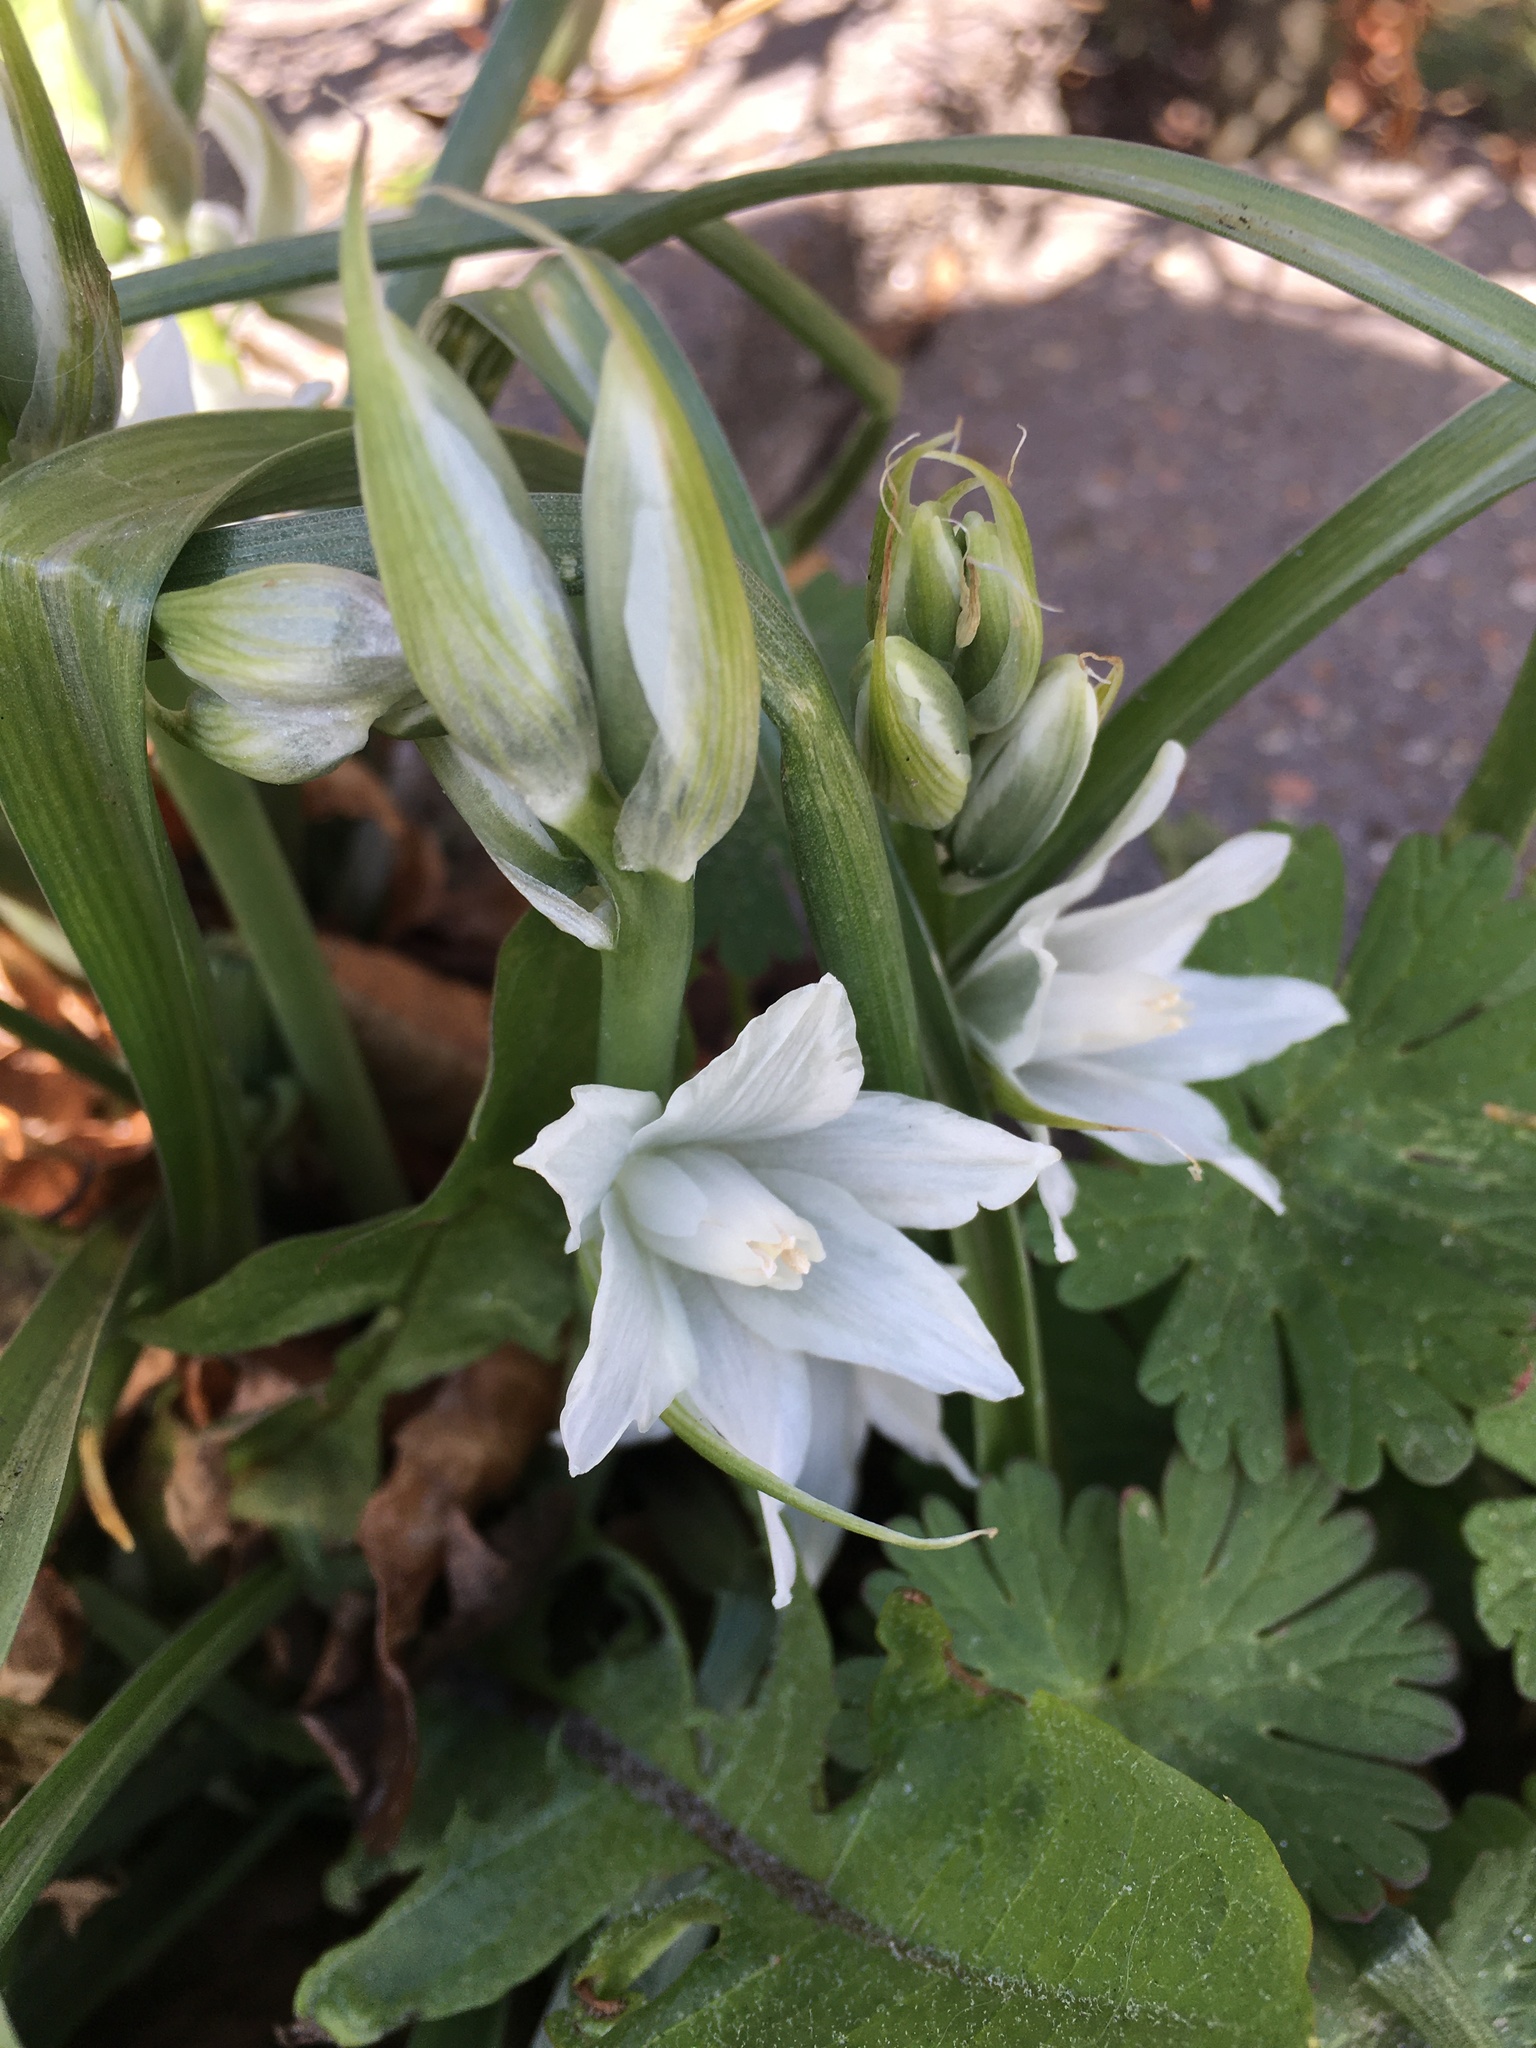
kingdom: Plantae
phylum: Tracheophyta
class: Liliopsida
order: Asparagales
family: Asparagaceae
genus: Ornithogalum
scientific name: Ornithogalum nutans
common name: Drooping star-of-bethlehem
